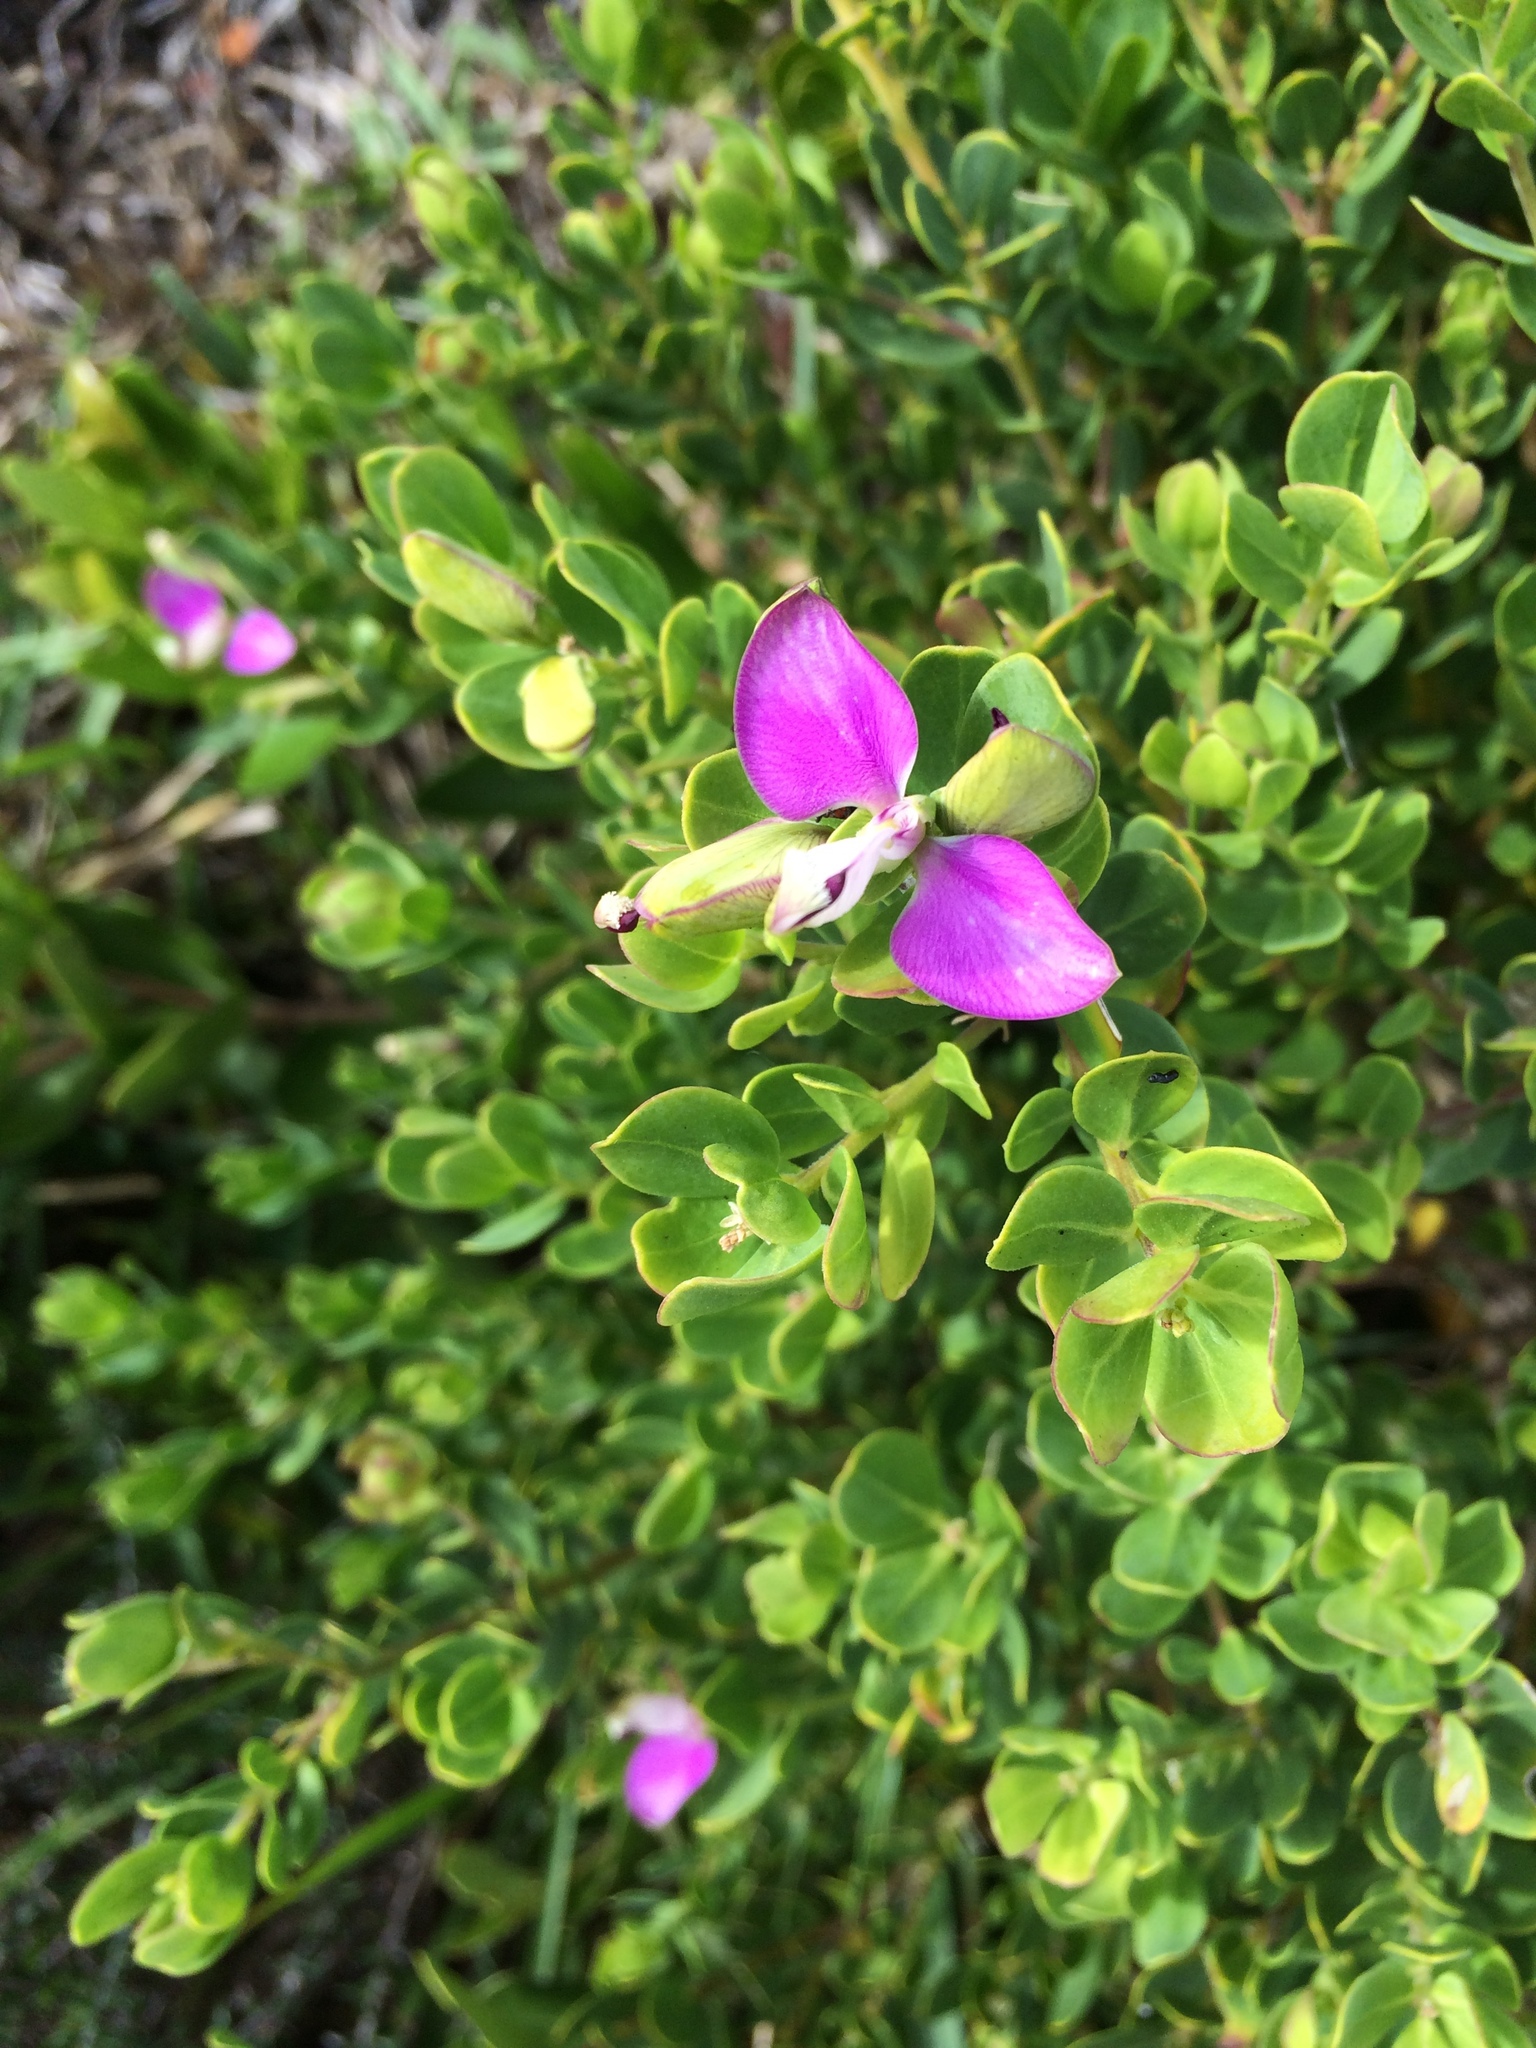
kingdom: Plantae
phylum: Tracheophyta
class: Magnoliopsida
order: Fabales
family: Polygalaceae
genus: Polygala
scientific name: Polygala myrtifolia
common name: Myrtle-leaf milkwort
